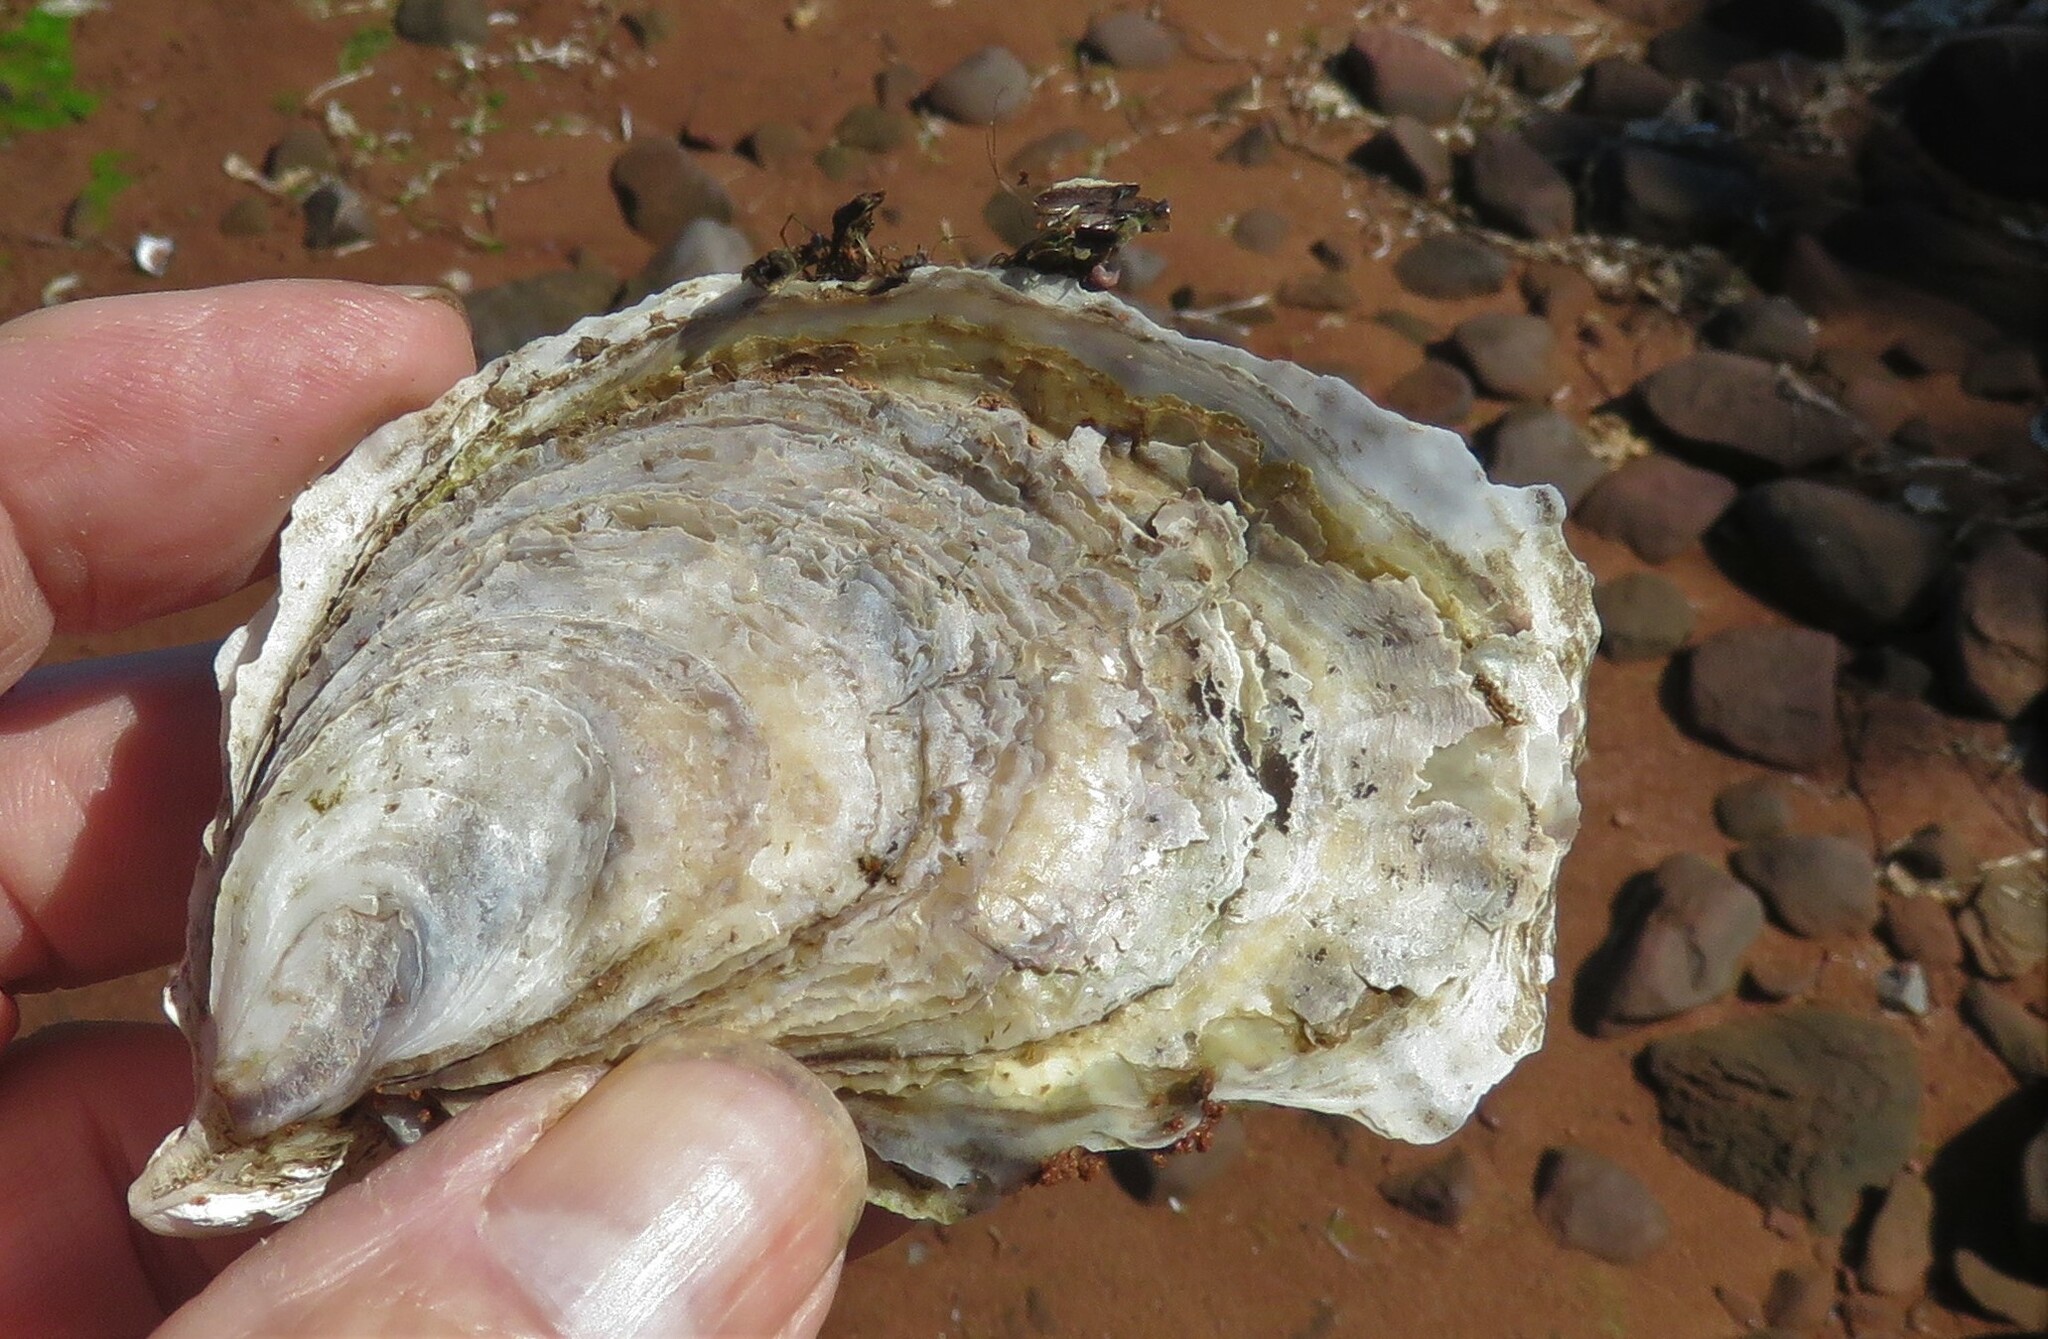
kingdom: Animalia
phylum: Mollusca
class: Bivalvia
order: Ostreida
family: Ostreidae
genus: Crassostrea
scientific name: Crassostrea virginica
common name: American oyster
